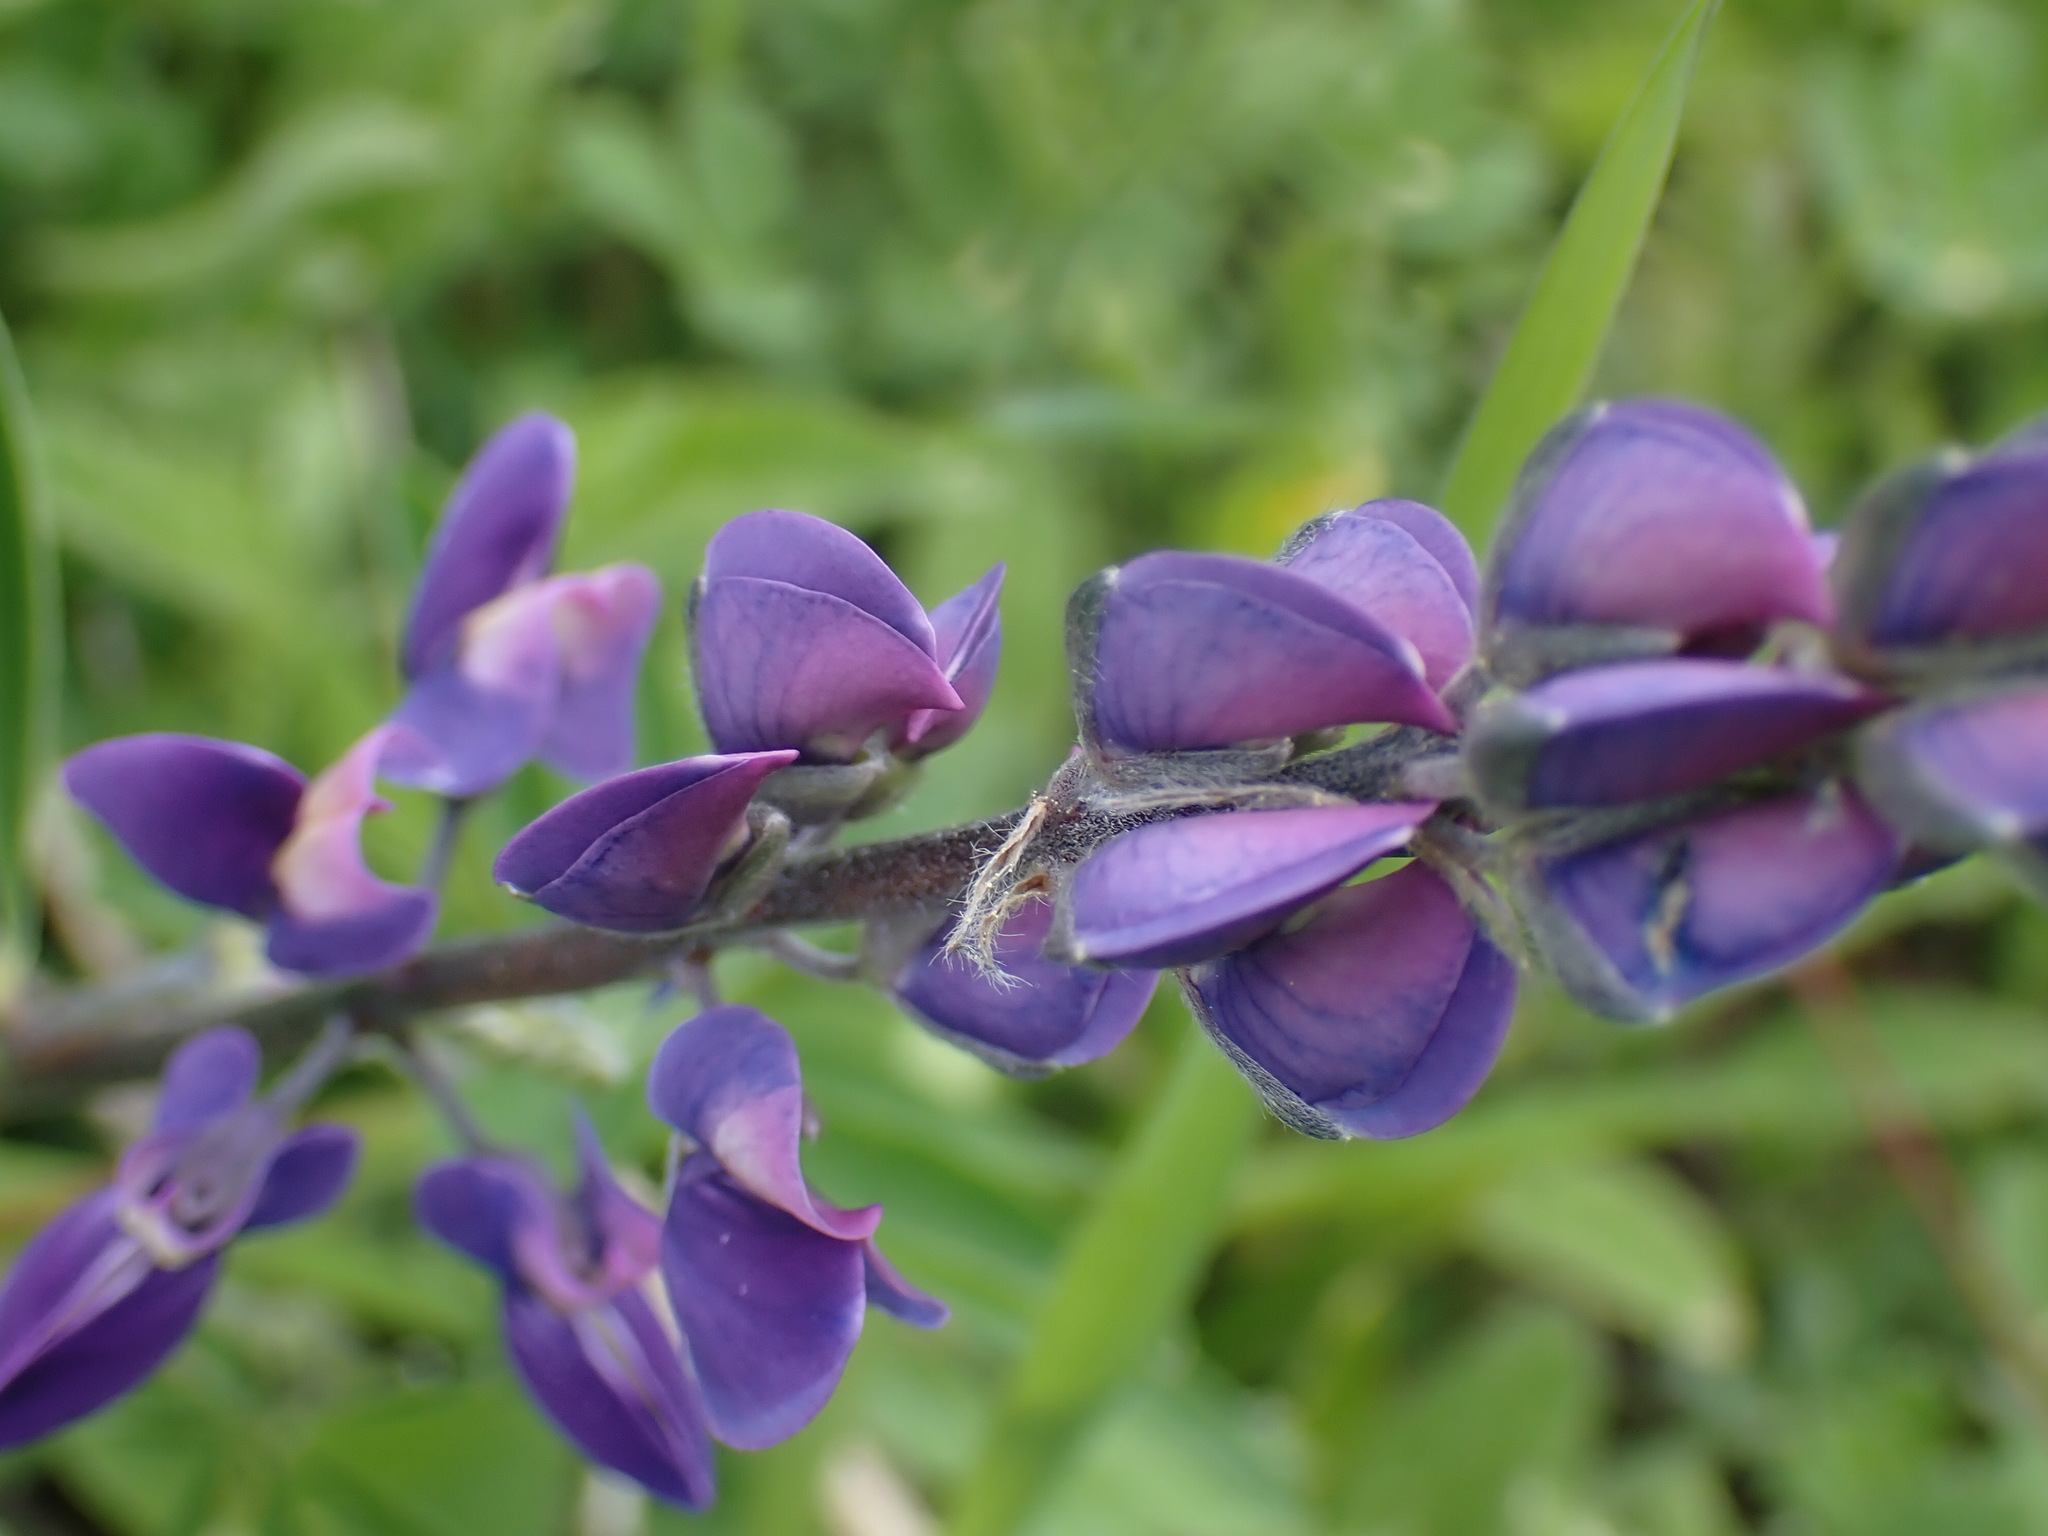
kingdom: Plantae
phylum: Tracheophyta
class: Magnoliopsida
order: Fabales
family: Fabaceae
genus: Lupinus
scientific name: Lupinus polyphyllus
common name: Garden lupin
